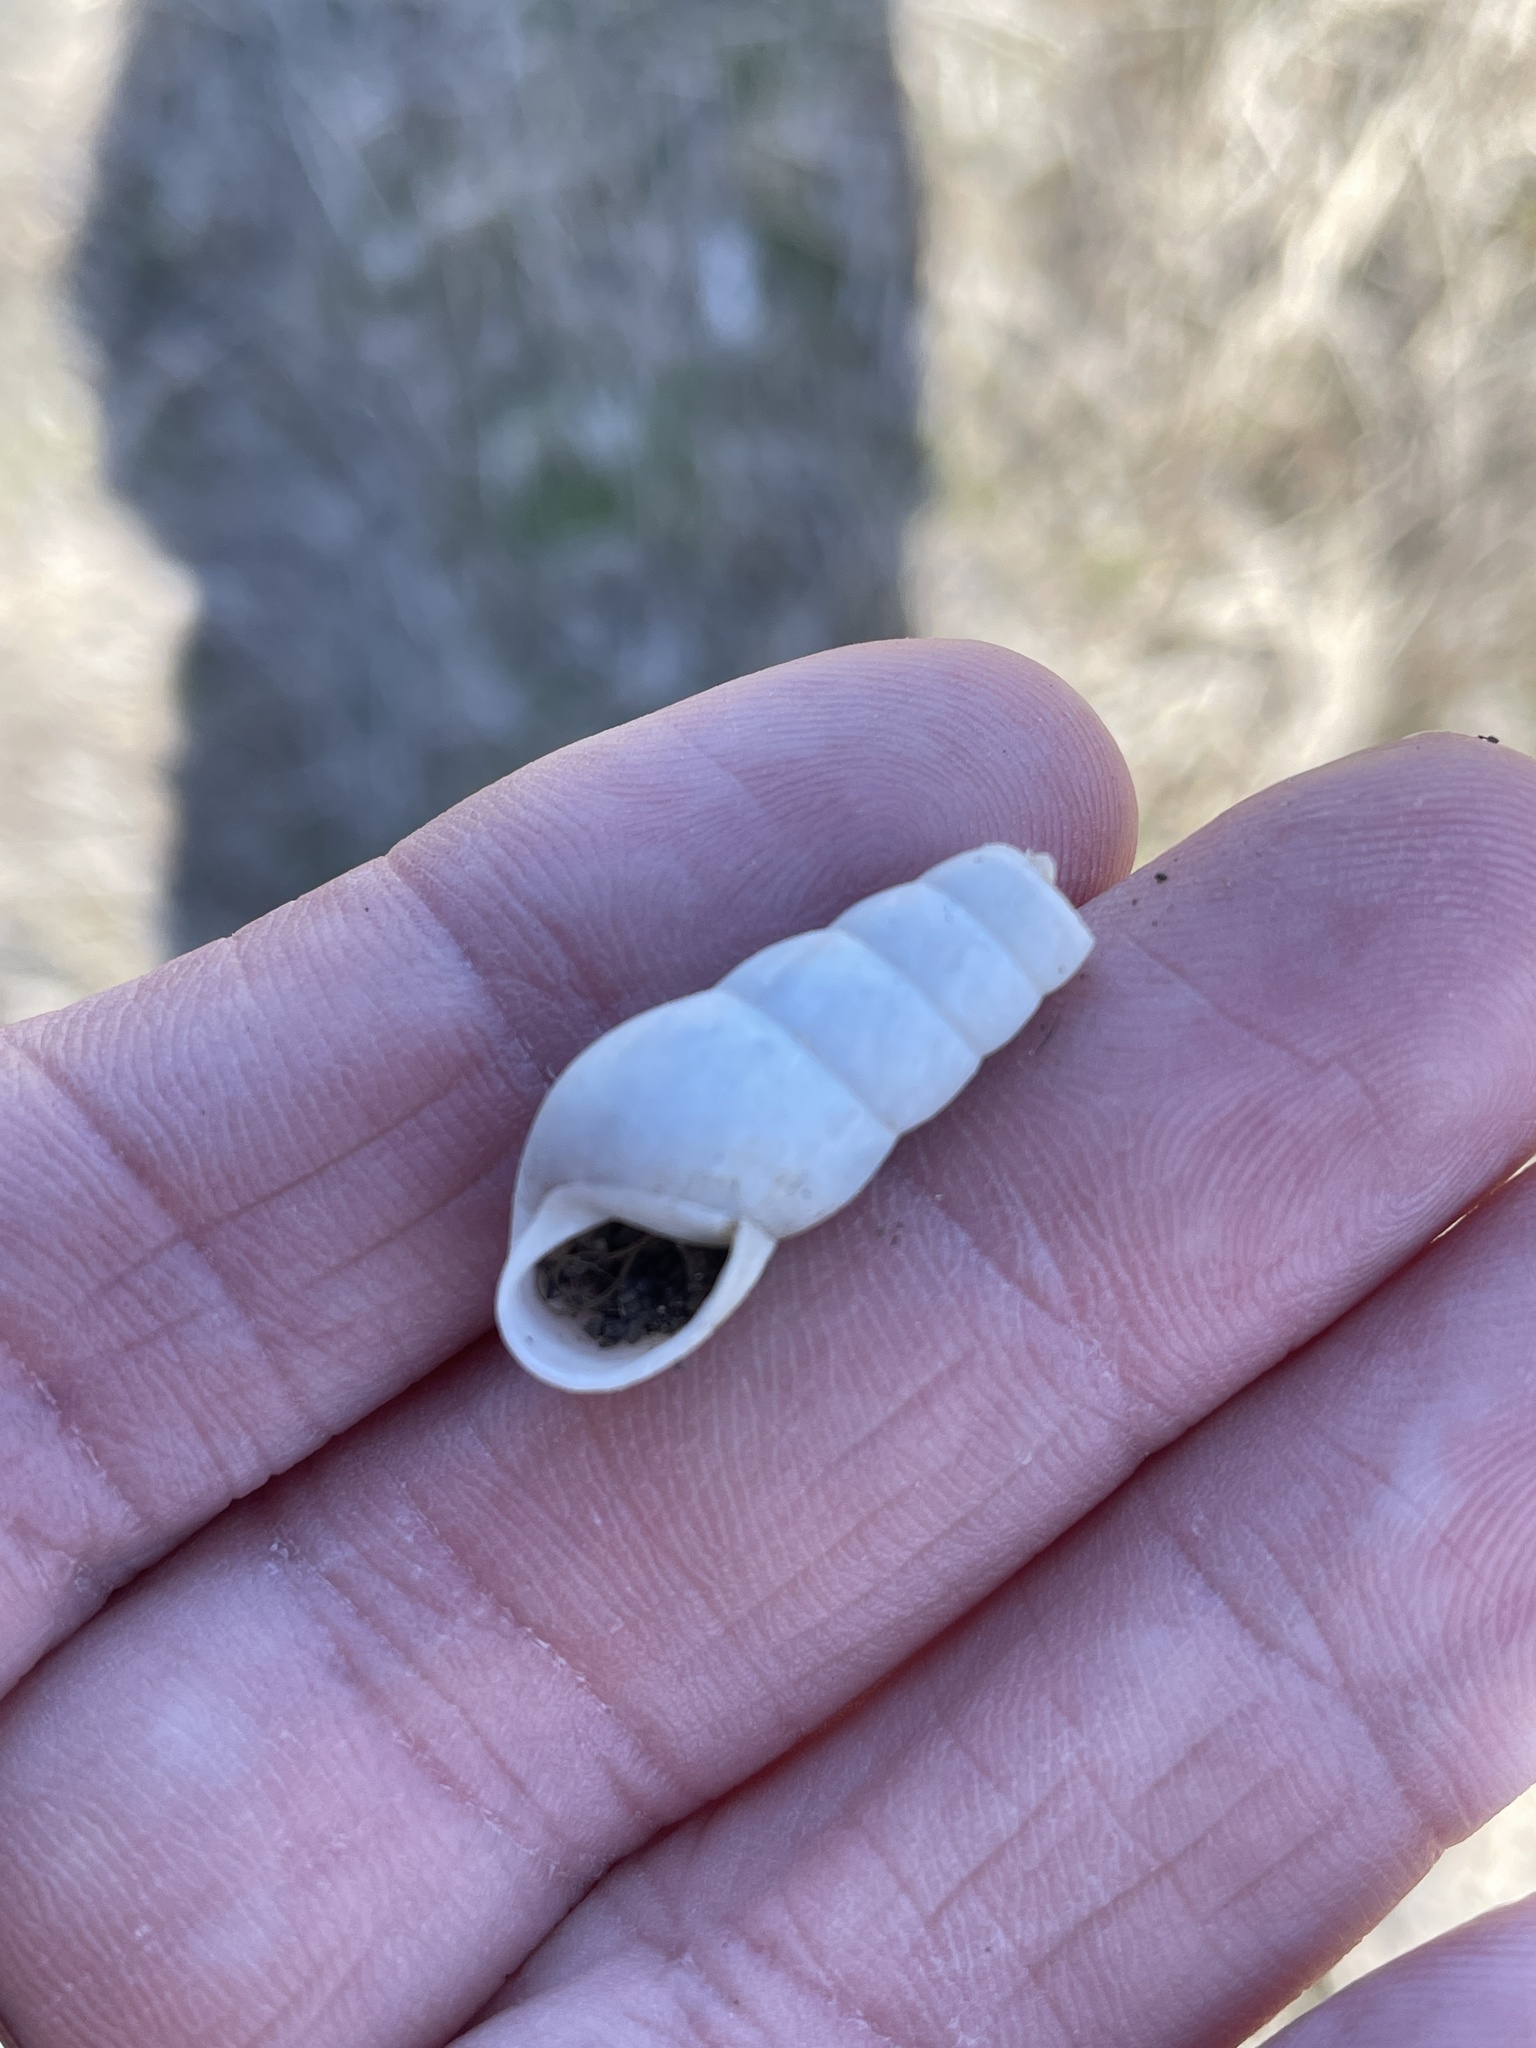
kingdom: Animalia
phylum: Mollusca
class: Gastropoda
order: Stylommatophora
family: Achatinidae
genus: Rumina
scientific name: Rumina decollata
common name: Decollate snail
